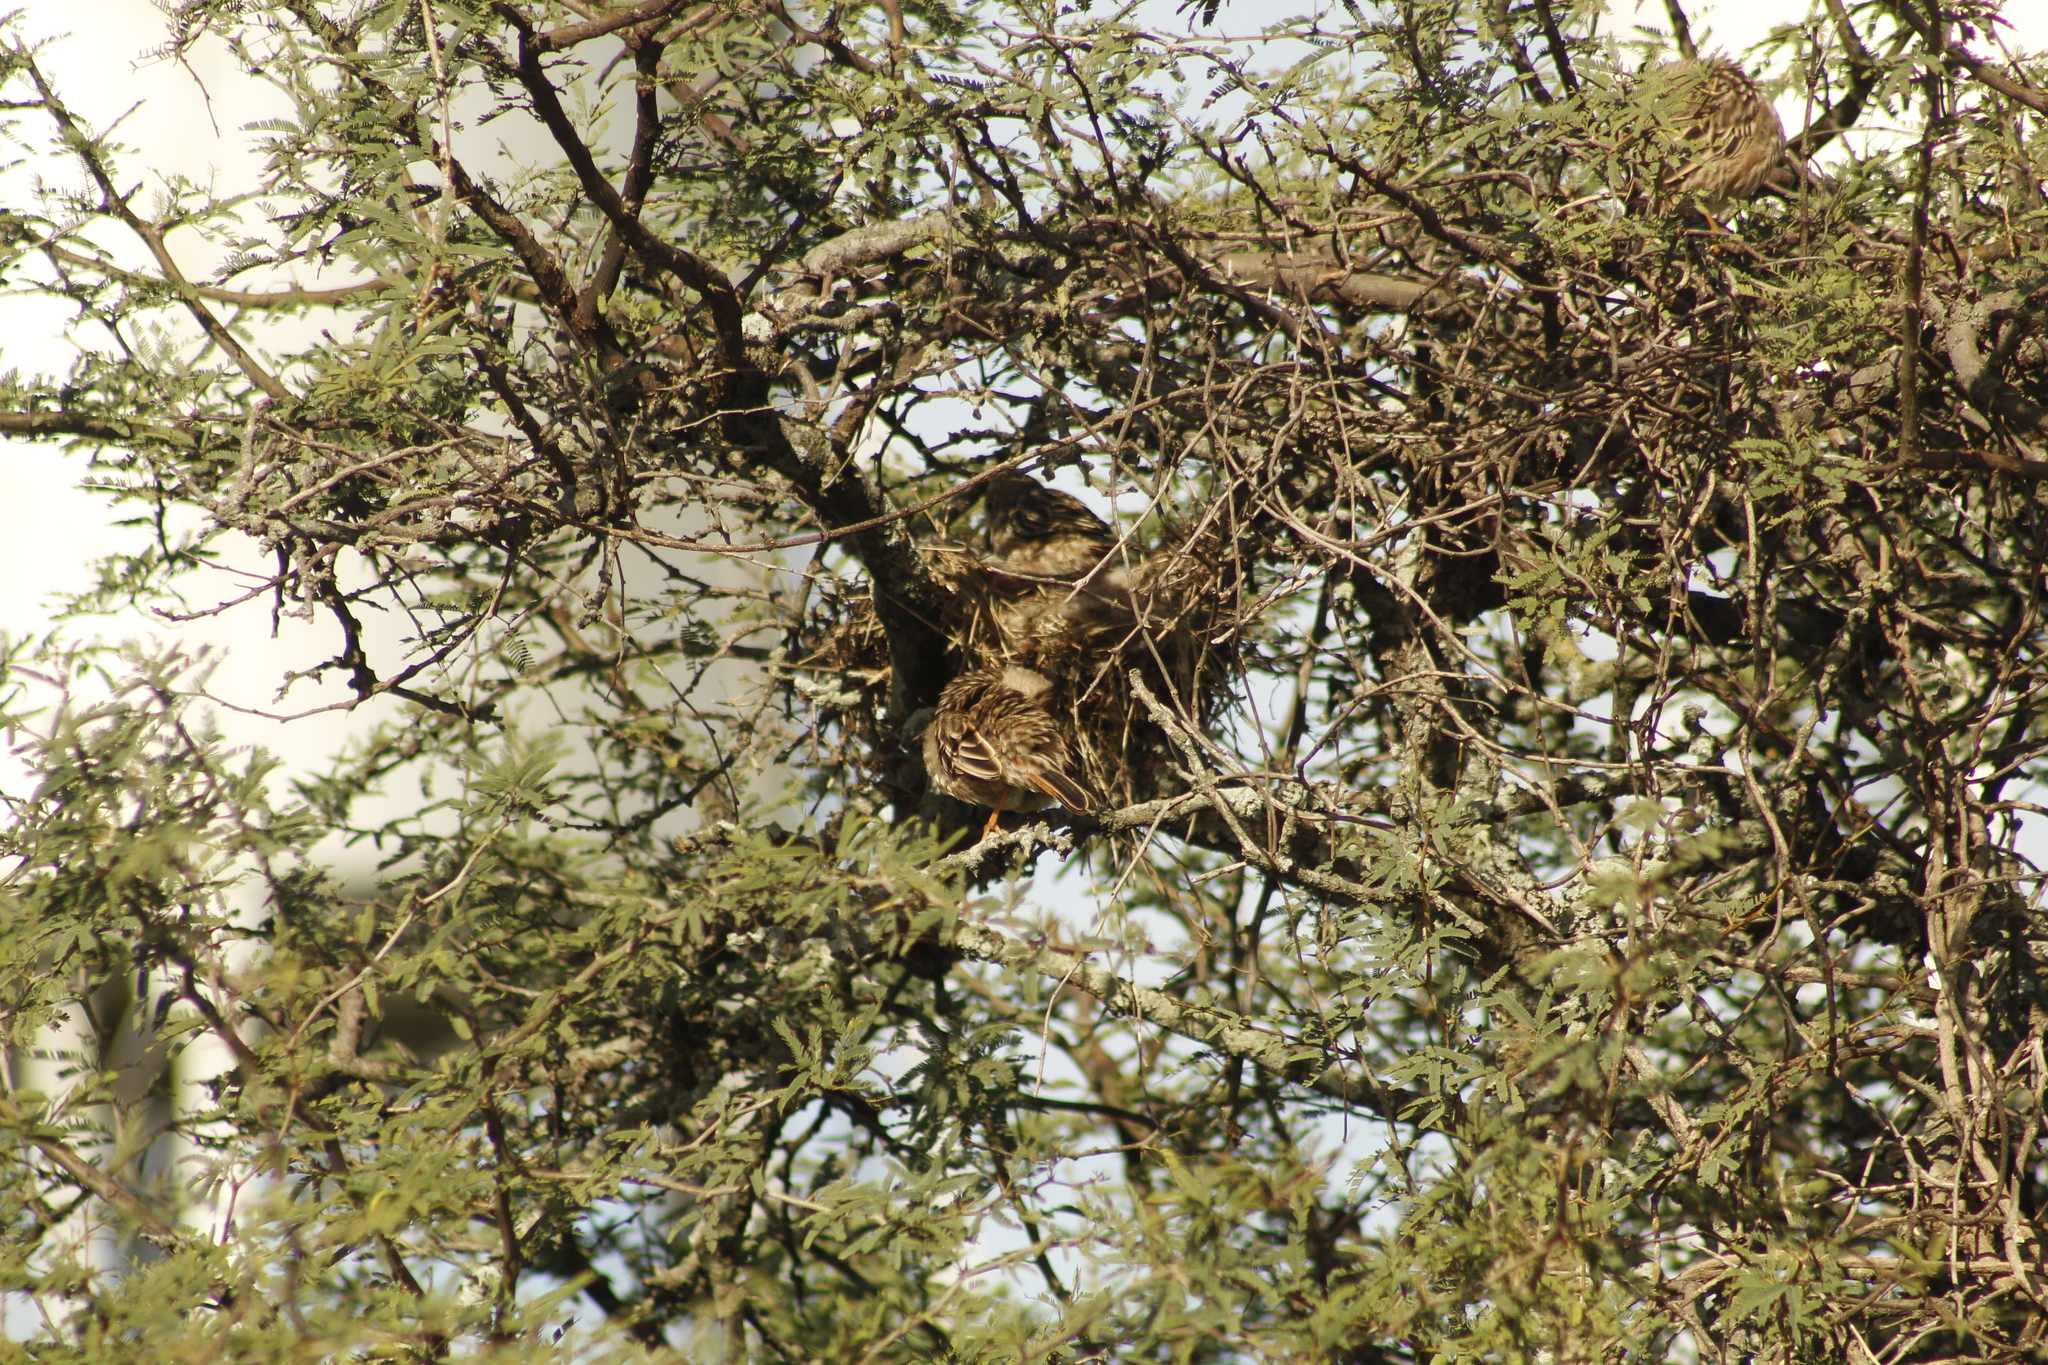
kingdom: Animalia
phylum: Chordata
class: Aves
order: Passeriformes
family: Furnariidae
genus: Coryphistera
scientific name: Coryphistera alaudina
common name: Lark-like brushrunner
